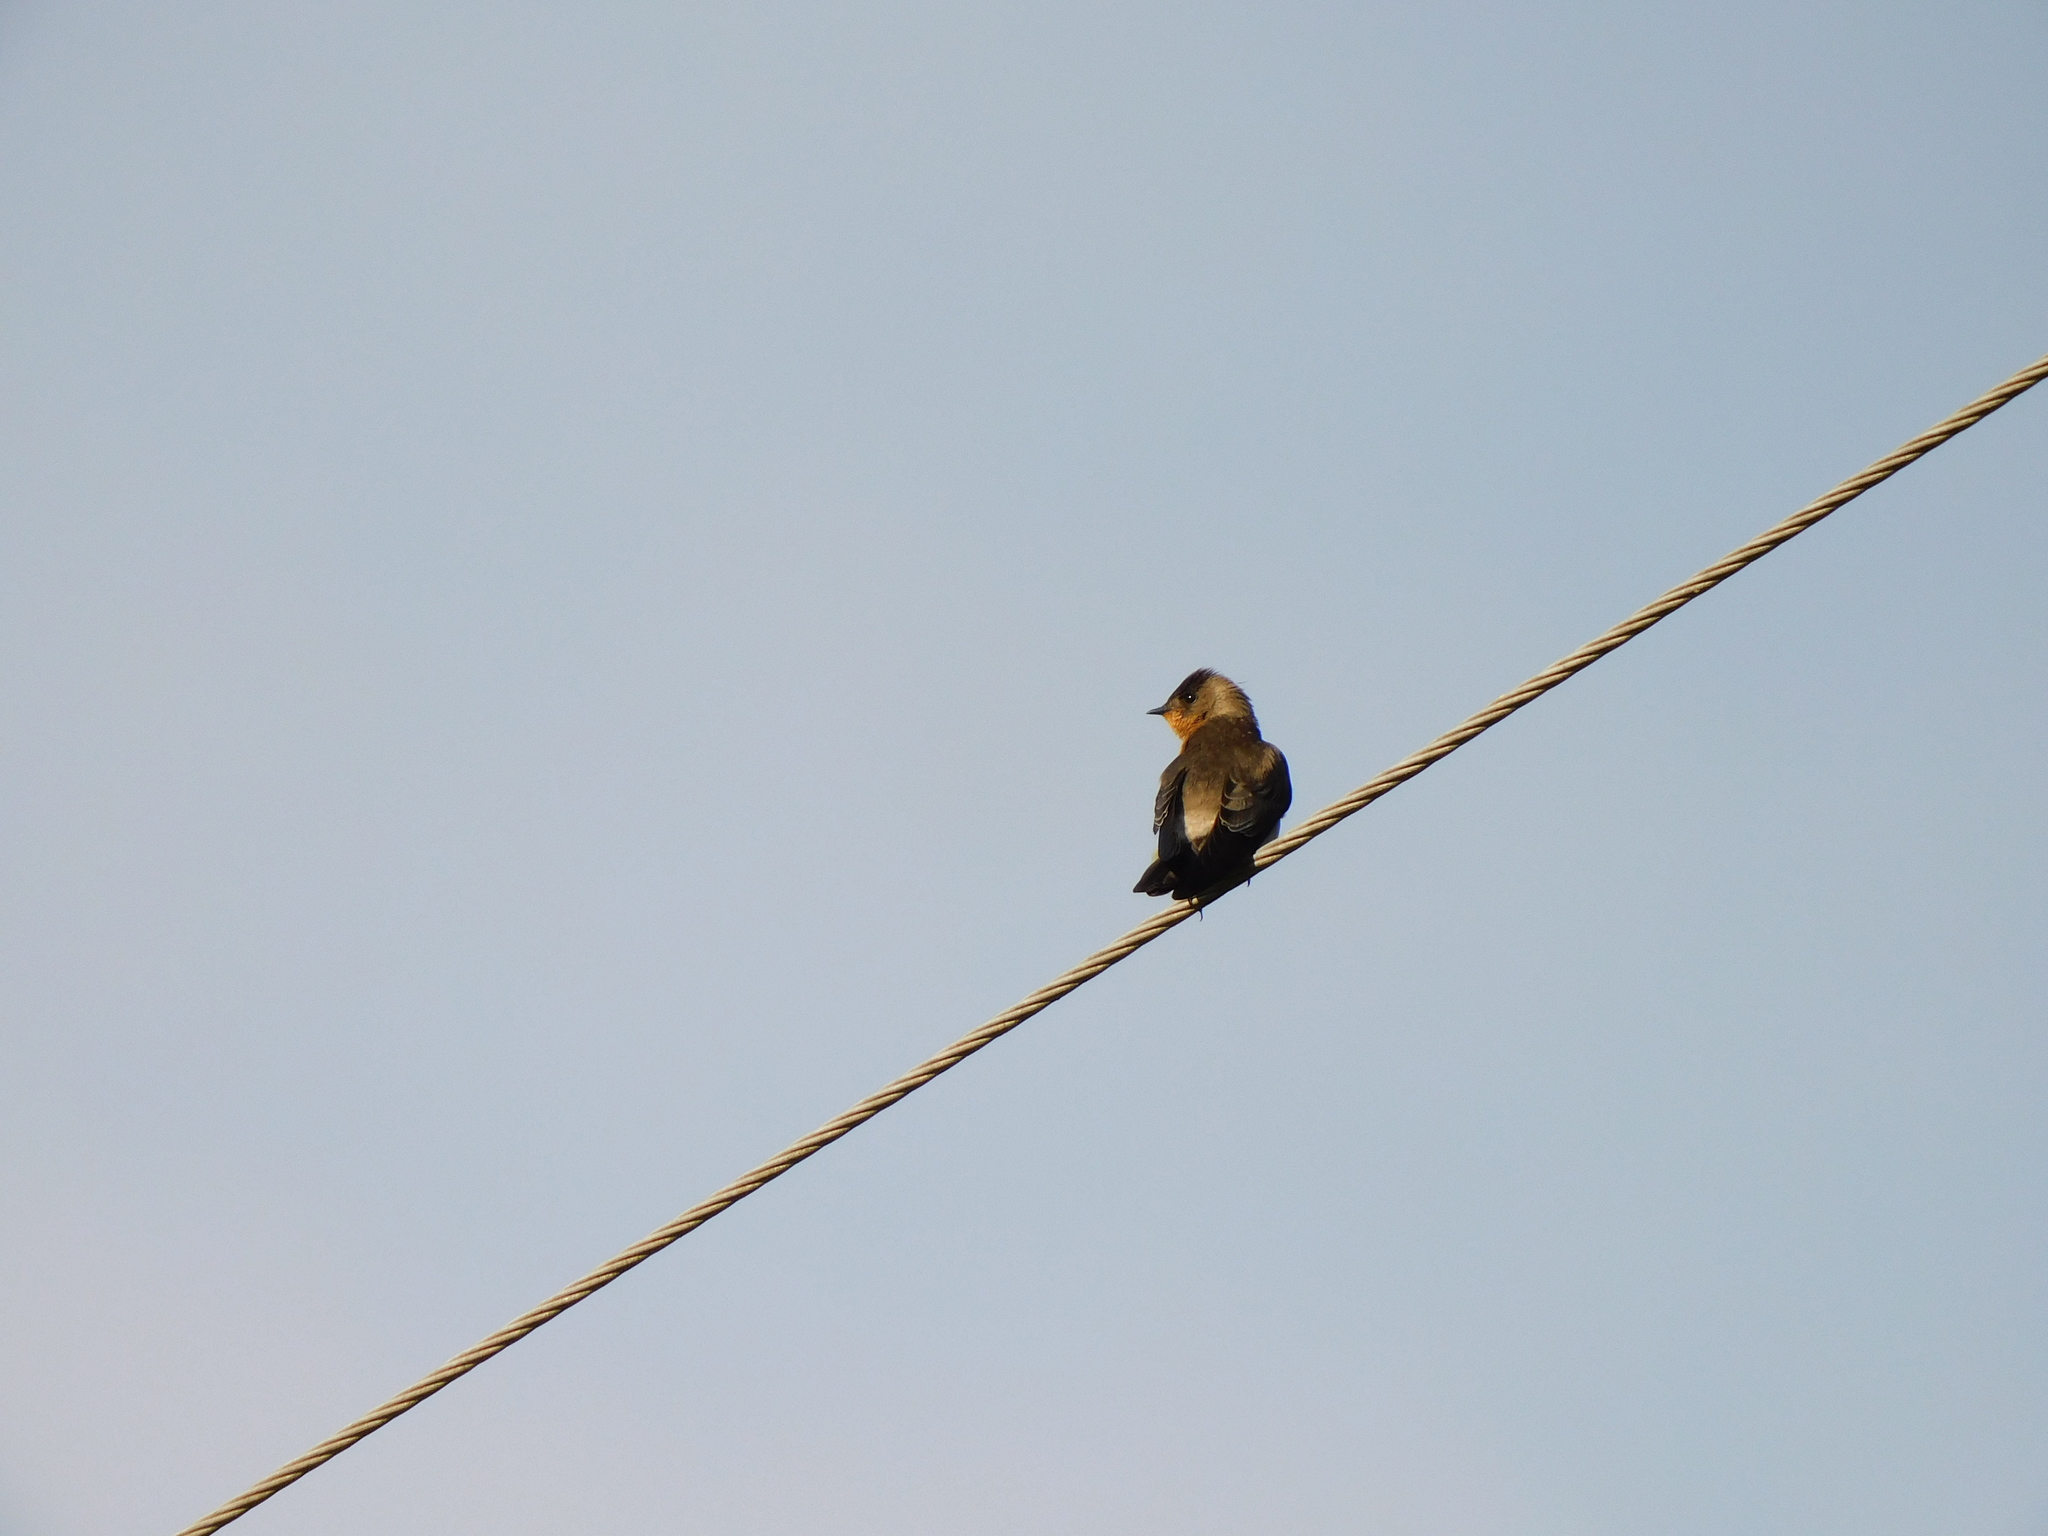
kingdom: Animalia
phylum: Chordata
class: Aves
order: Passeriformes
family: Hirundinidae
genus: Stelgidopteryx
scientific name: Stelgidopteryx ruficollis
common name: Southern rough-winged swallow
